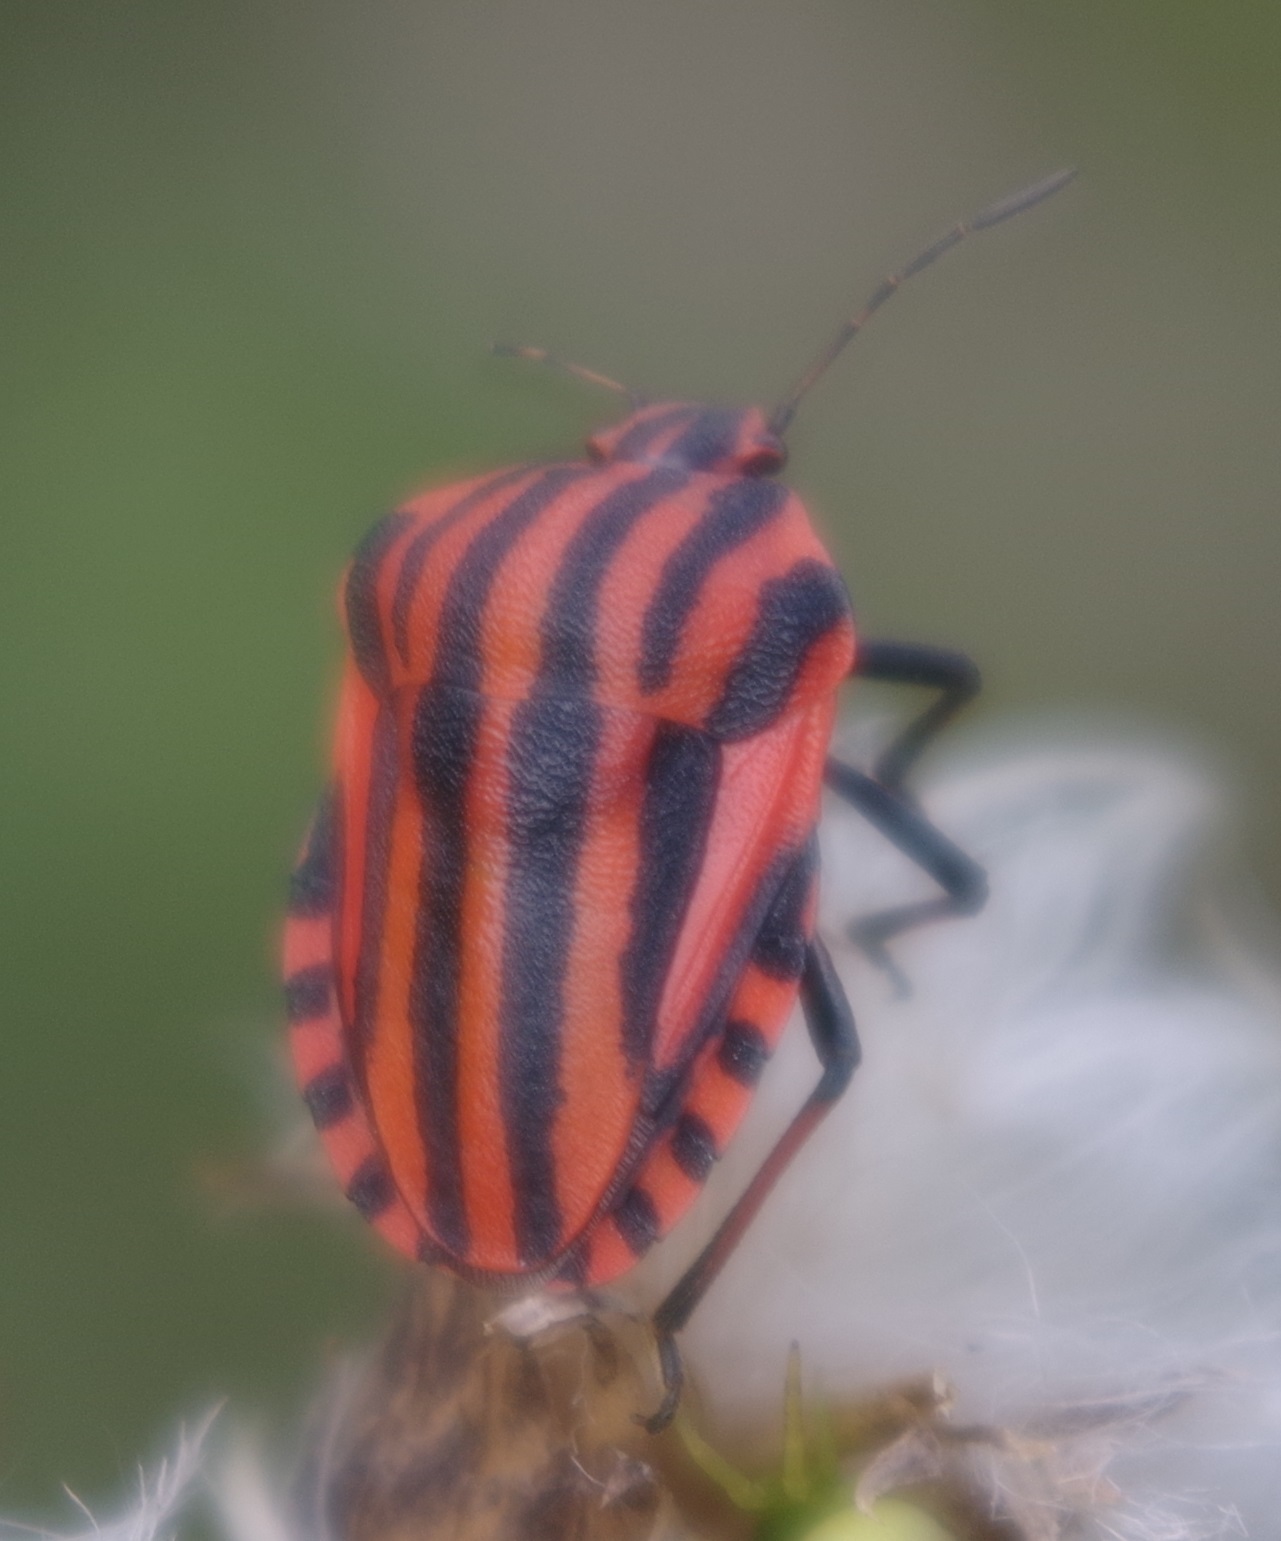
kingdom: Animalia
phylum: Arthropoda
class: Insecta
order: Hemiptera
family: Pentatomidae
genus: Graphosoma
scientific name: Graphosoma italicum
